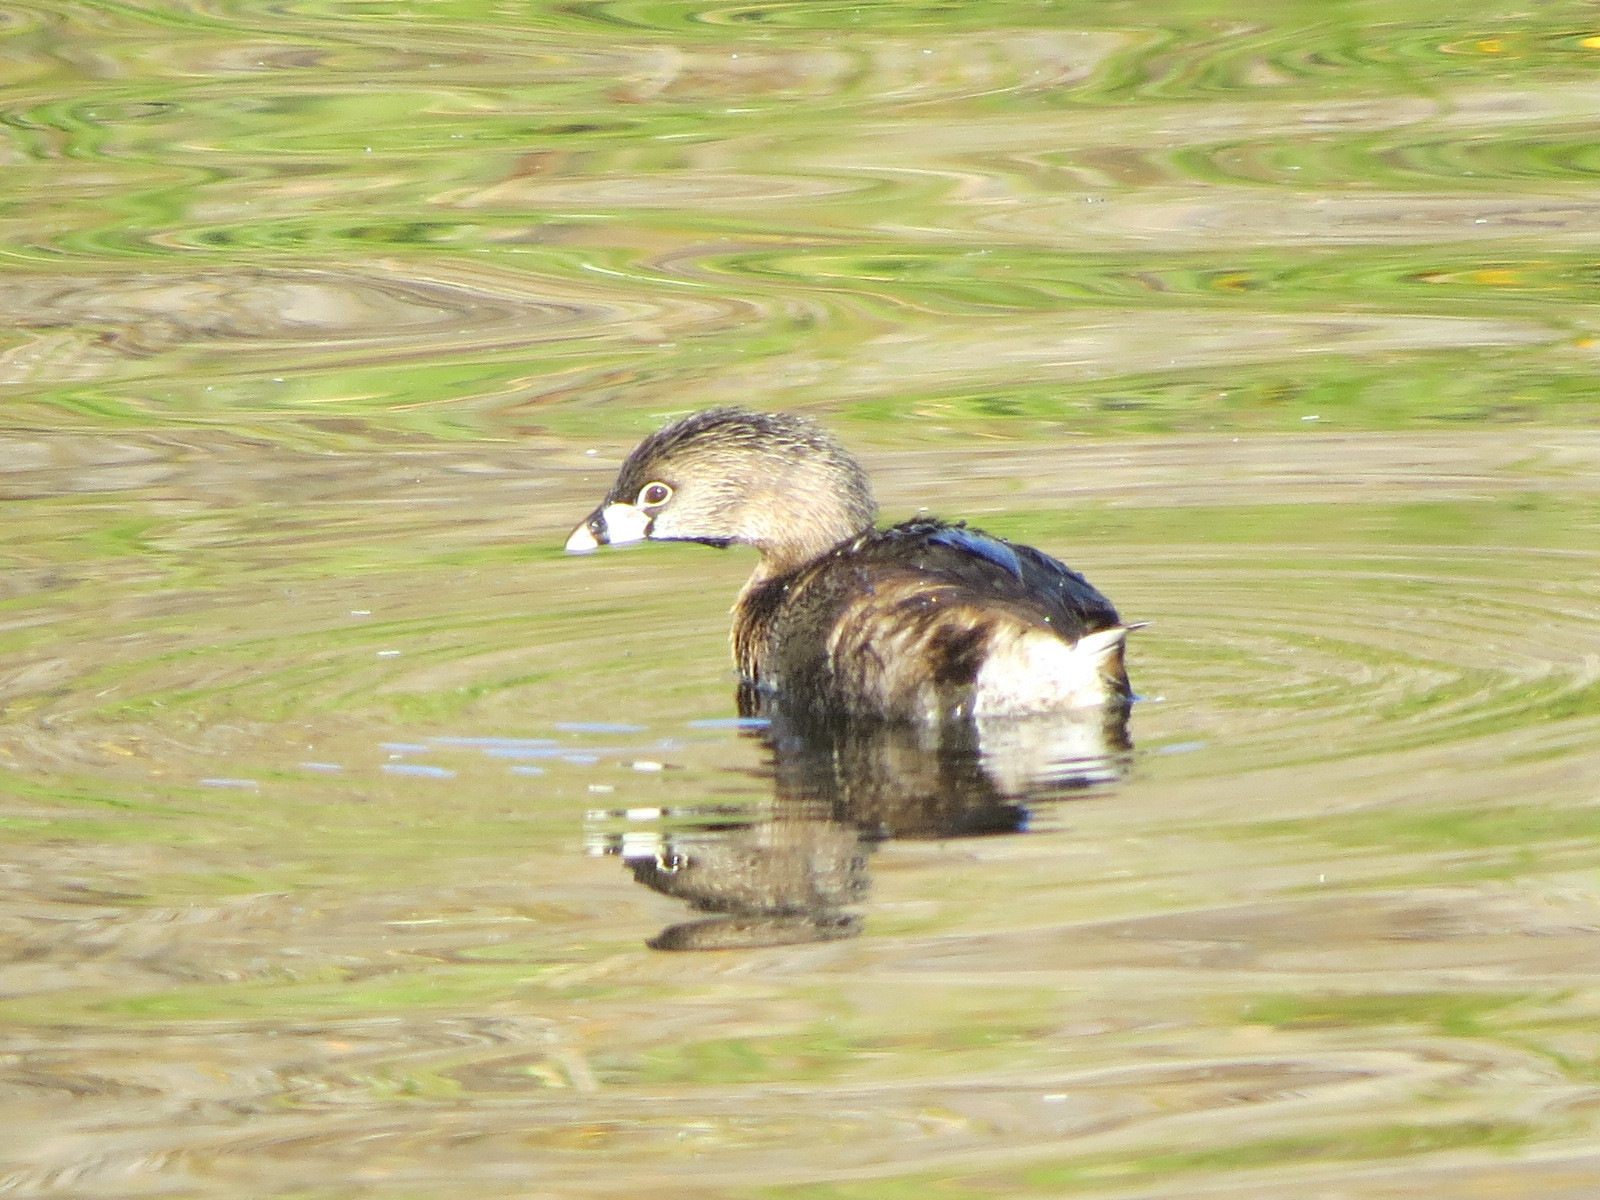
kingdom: Animalia
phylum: Chordata
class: Aves
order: Podicipediformes
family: Podicipedidae
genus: Podilymbus
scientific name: Podilymbus podiceps
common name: Pied-billed grebe
